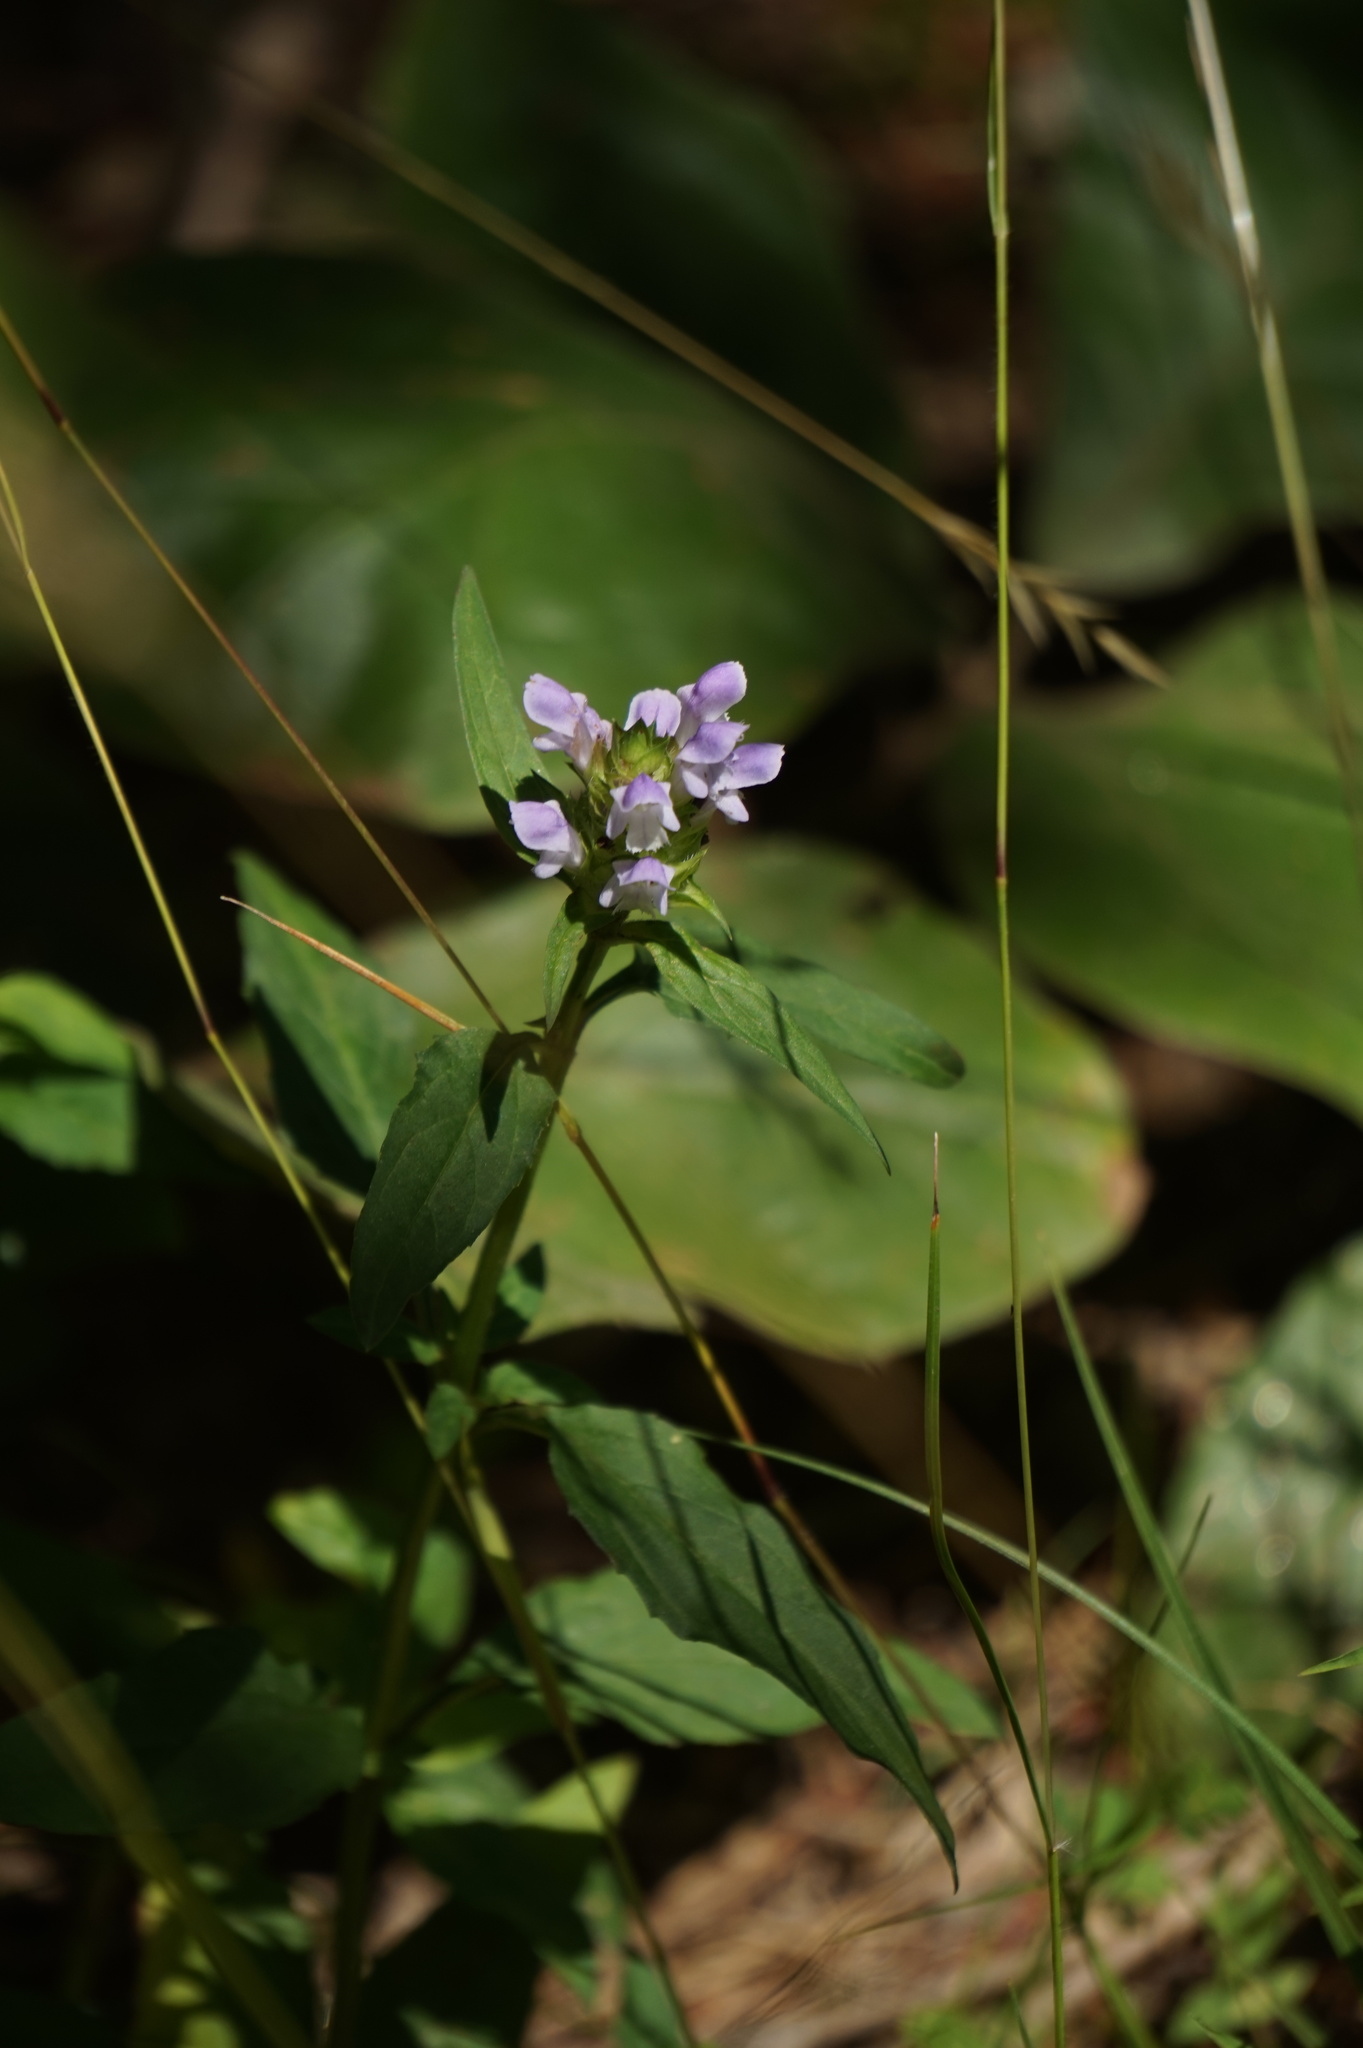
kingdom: Plantae
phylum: Tracheophyta
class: Magnoliopsida
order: Lamiales
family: Lamiaceae
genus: Prunella
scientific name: Prunella vulgaris
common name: Heal-all
